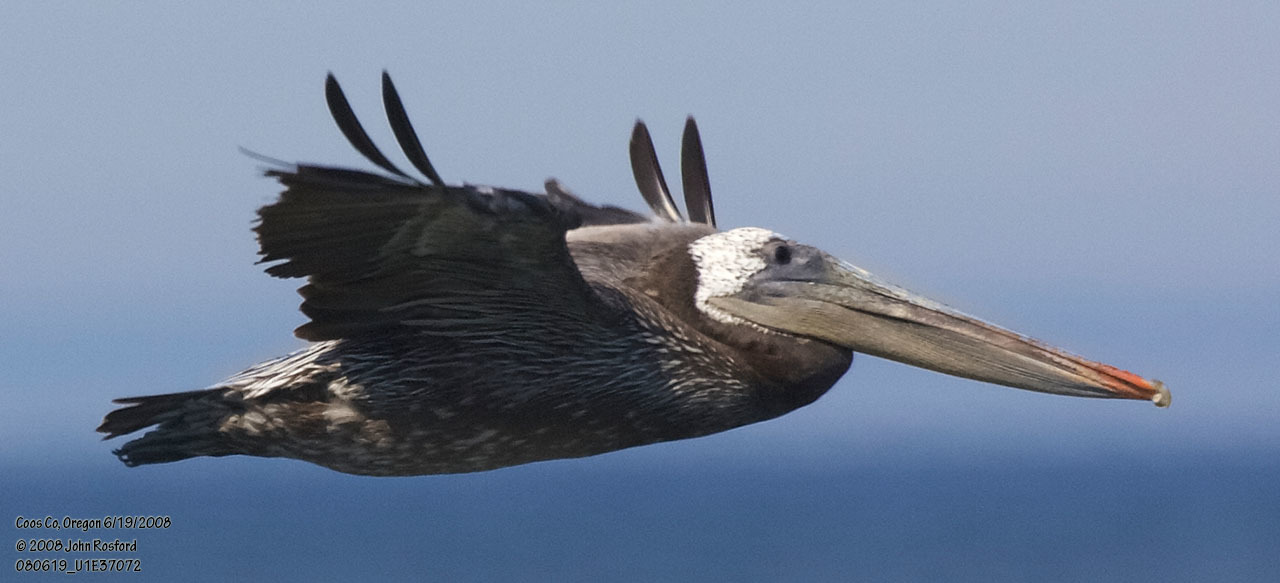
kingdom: Animalia
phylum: Chordata
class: Aves
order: Pelecaniformes
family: Pelecanidae
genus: Pelecanus
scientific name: Pelecanus occidentalis
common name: Brown pelican
